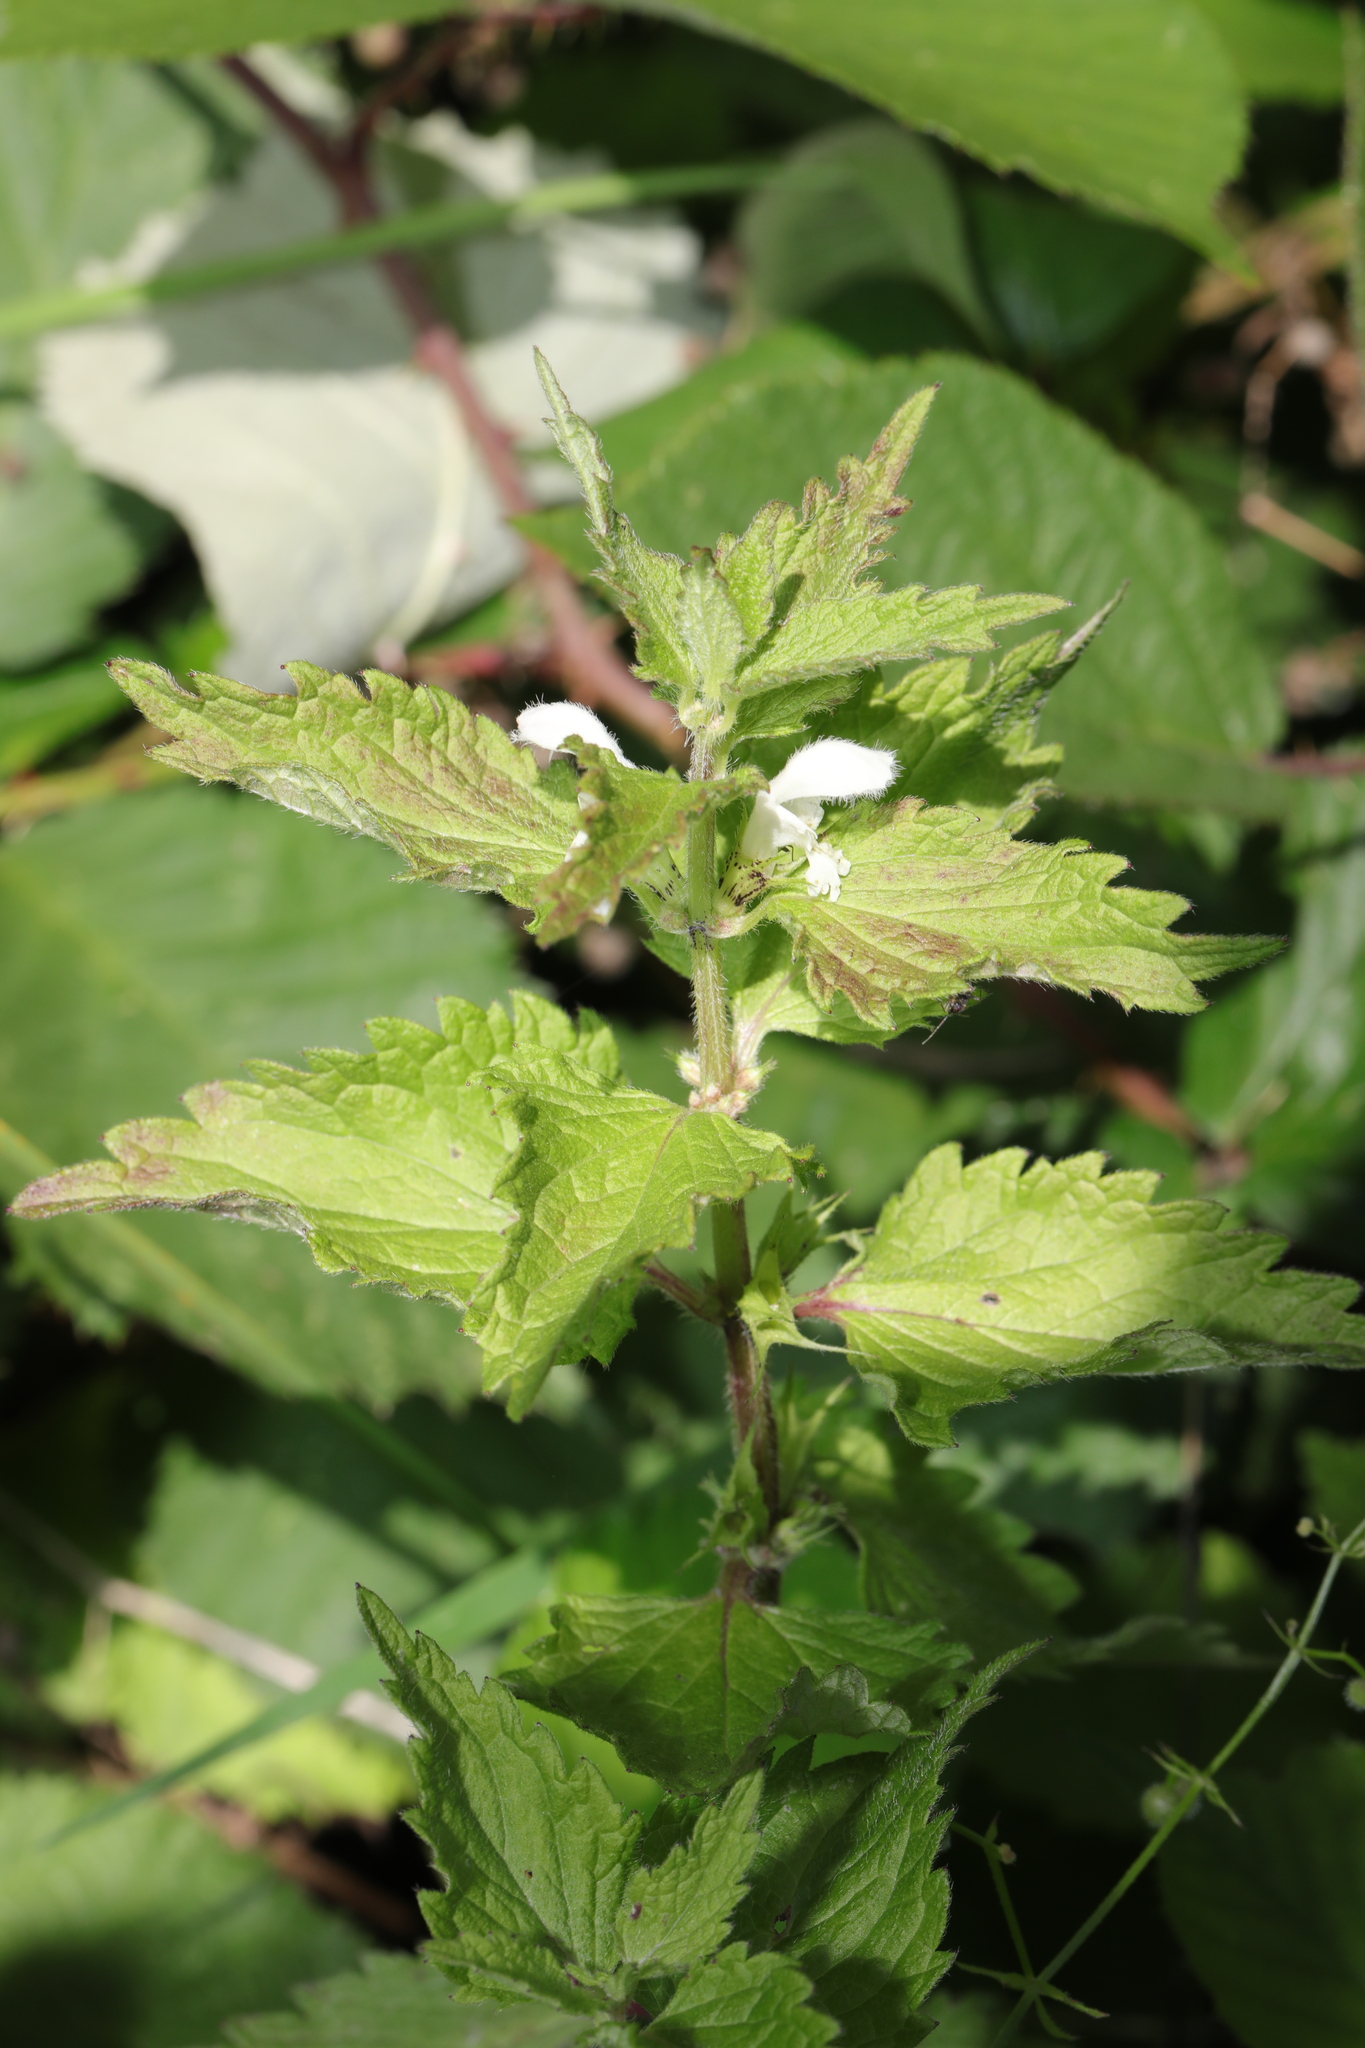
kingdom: Plantae
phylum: Tracheophyta
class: Magnoliopsida
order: Lamiales
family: Lamiaceae
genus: Lamium
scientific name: Lamium album
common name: White dead-nettle
